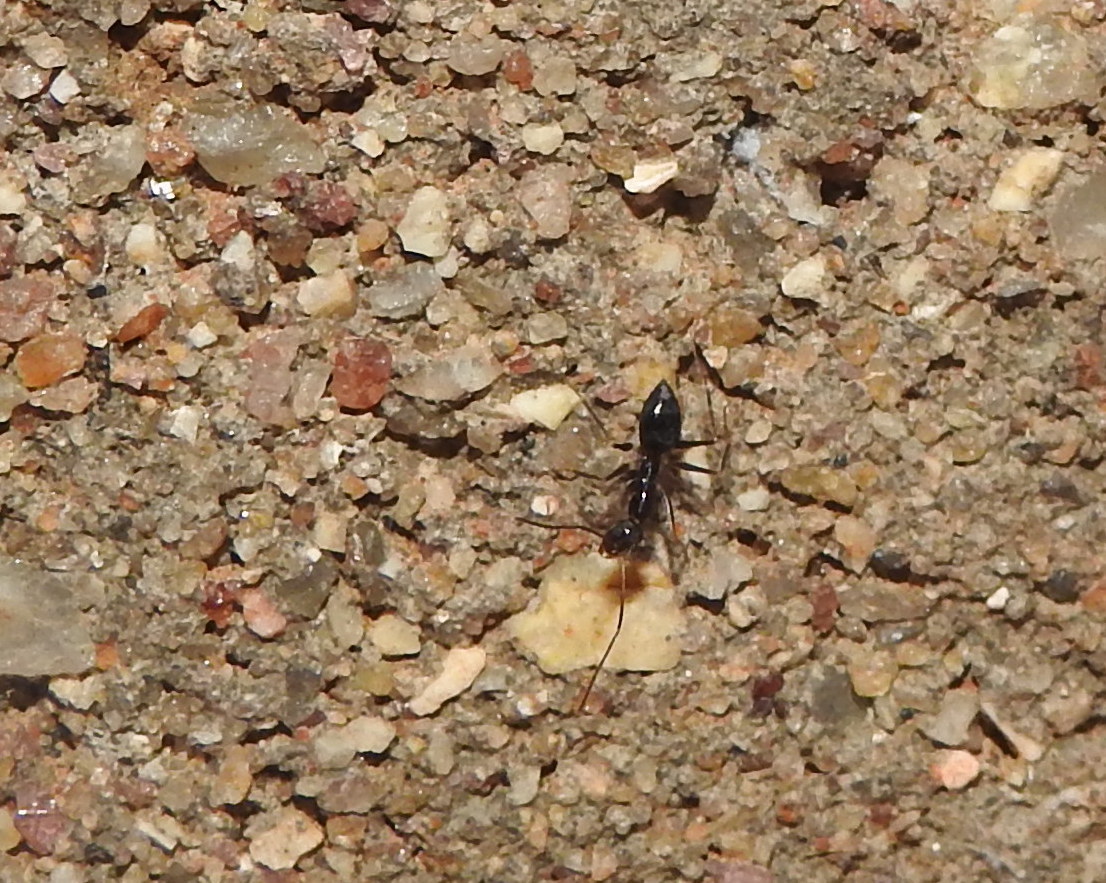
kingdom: Animalia
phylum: Arthropoda
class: Insecta
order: Hymenoptera
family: Formicidae
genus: Paratrechina
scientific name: Paratrechina longicornis
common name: Longhorned crazy ant
